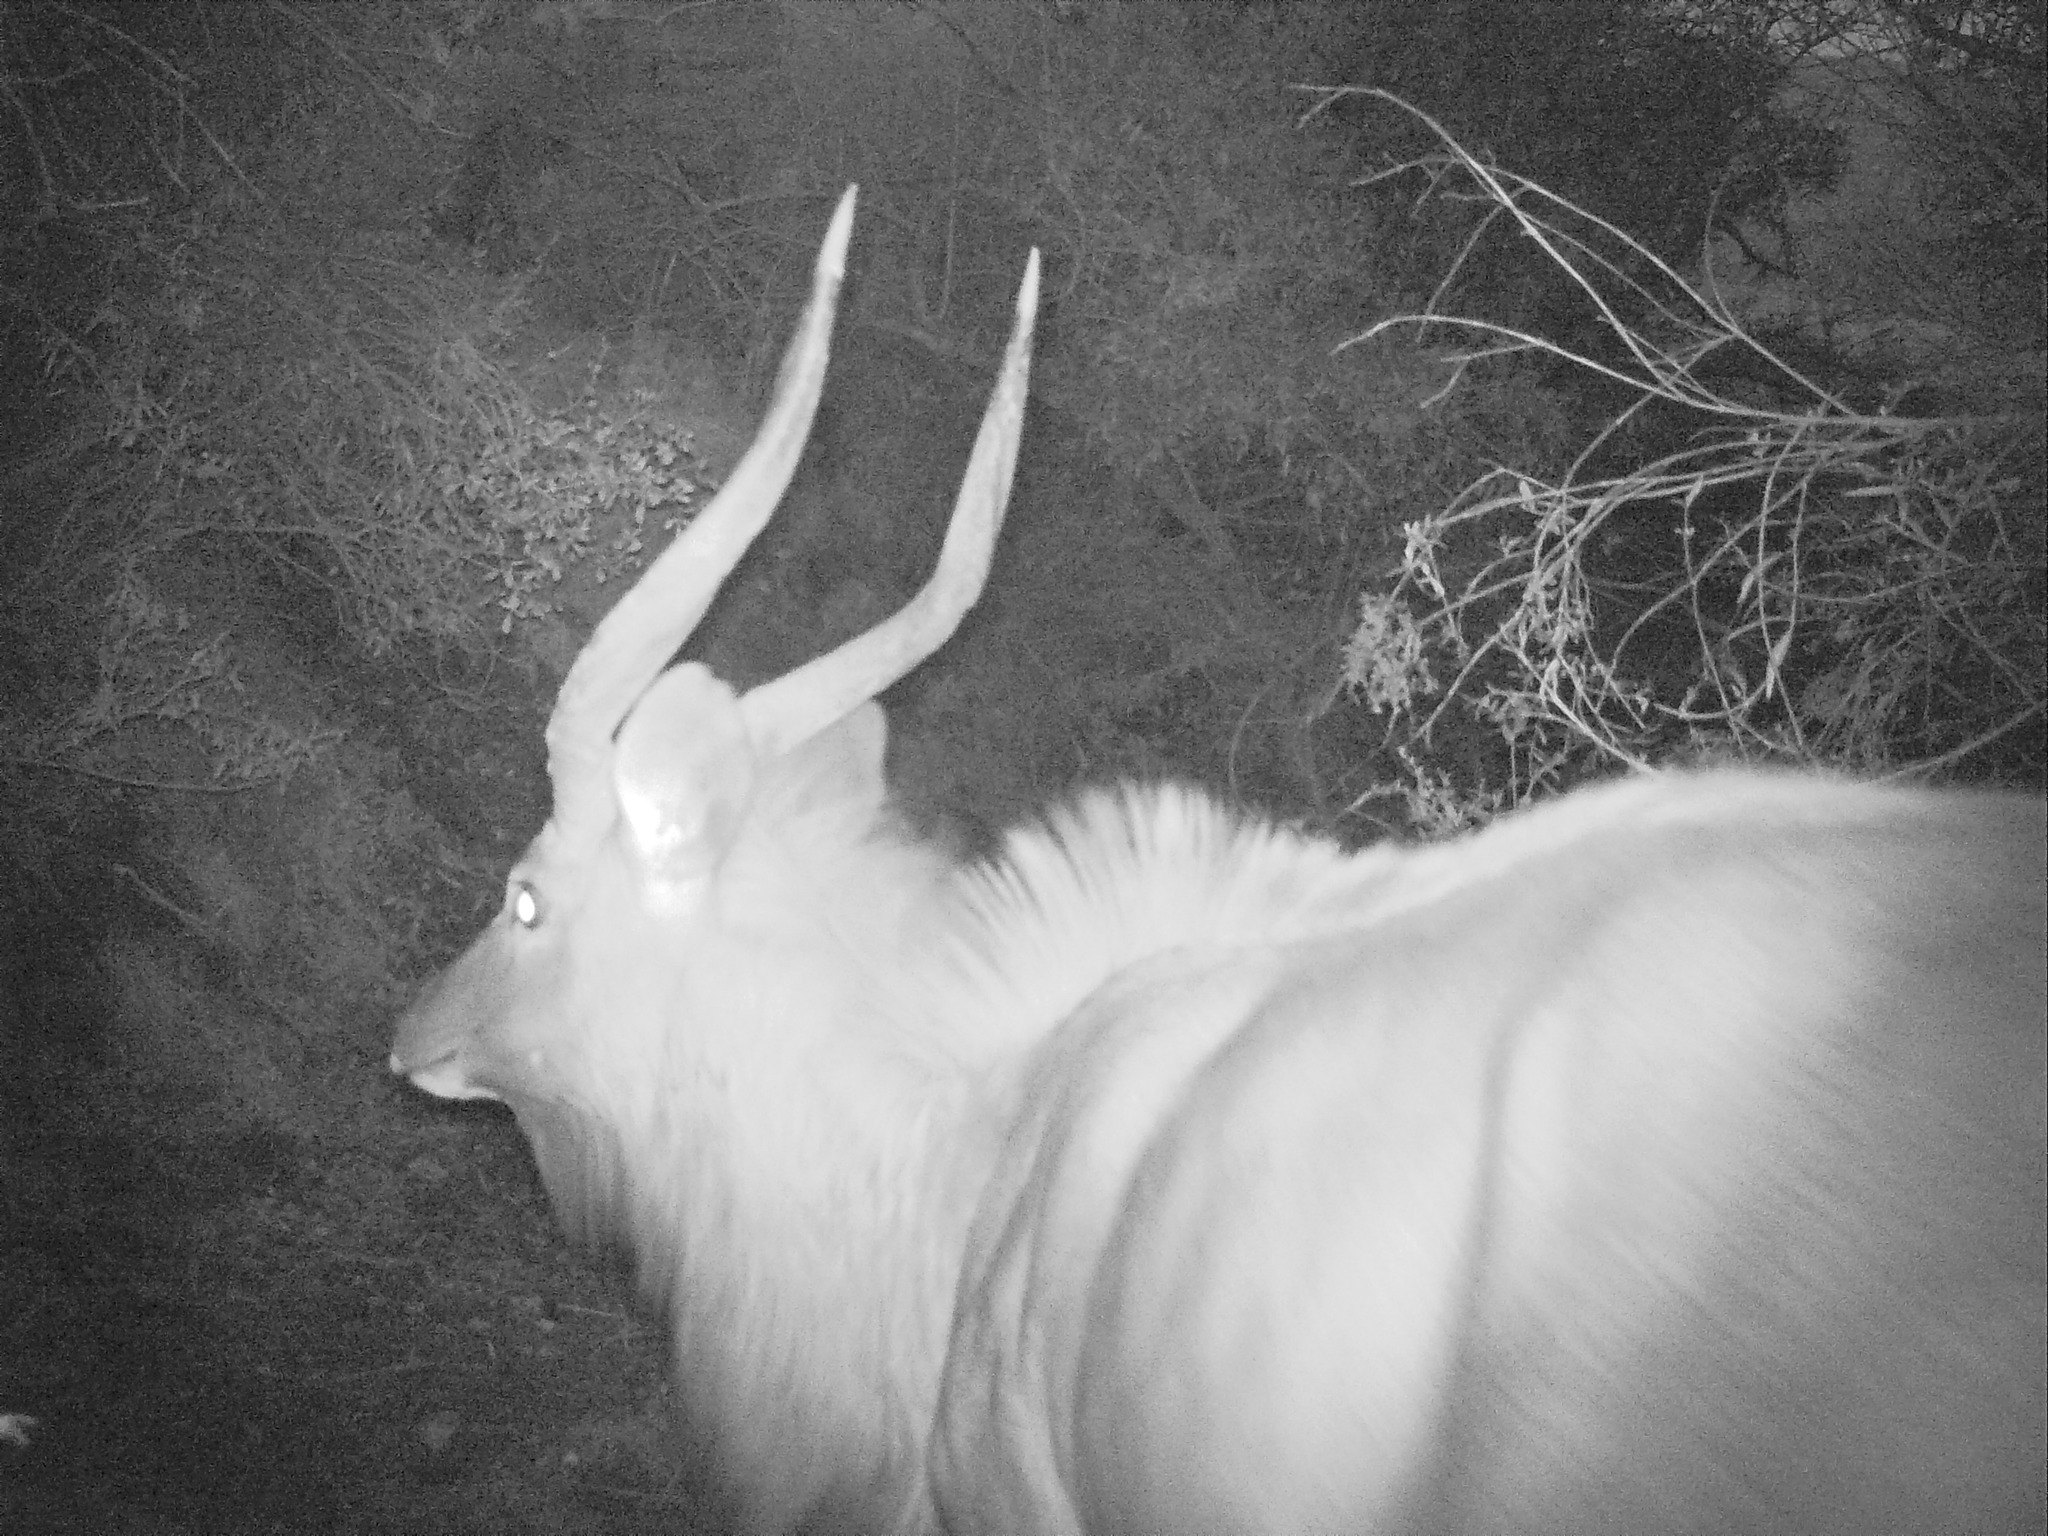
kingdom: Animalia
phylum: Chordata
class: Mammalia
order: Artiodactyla
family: Bovidae
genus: Tragelaphus
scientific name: Tragelaphus angasii
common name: Nyala
